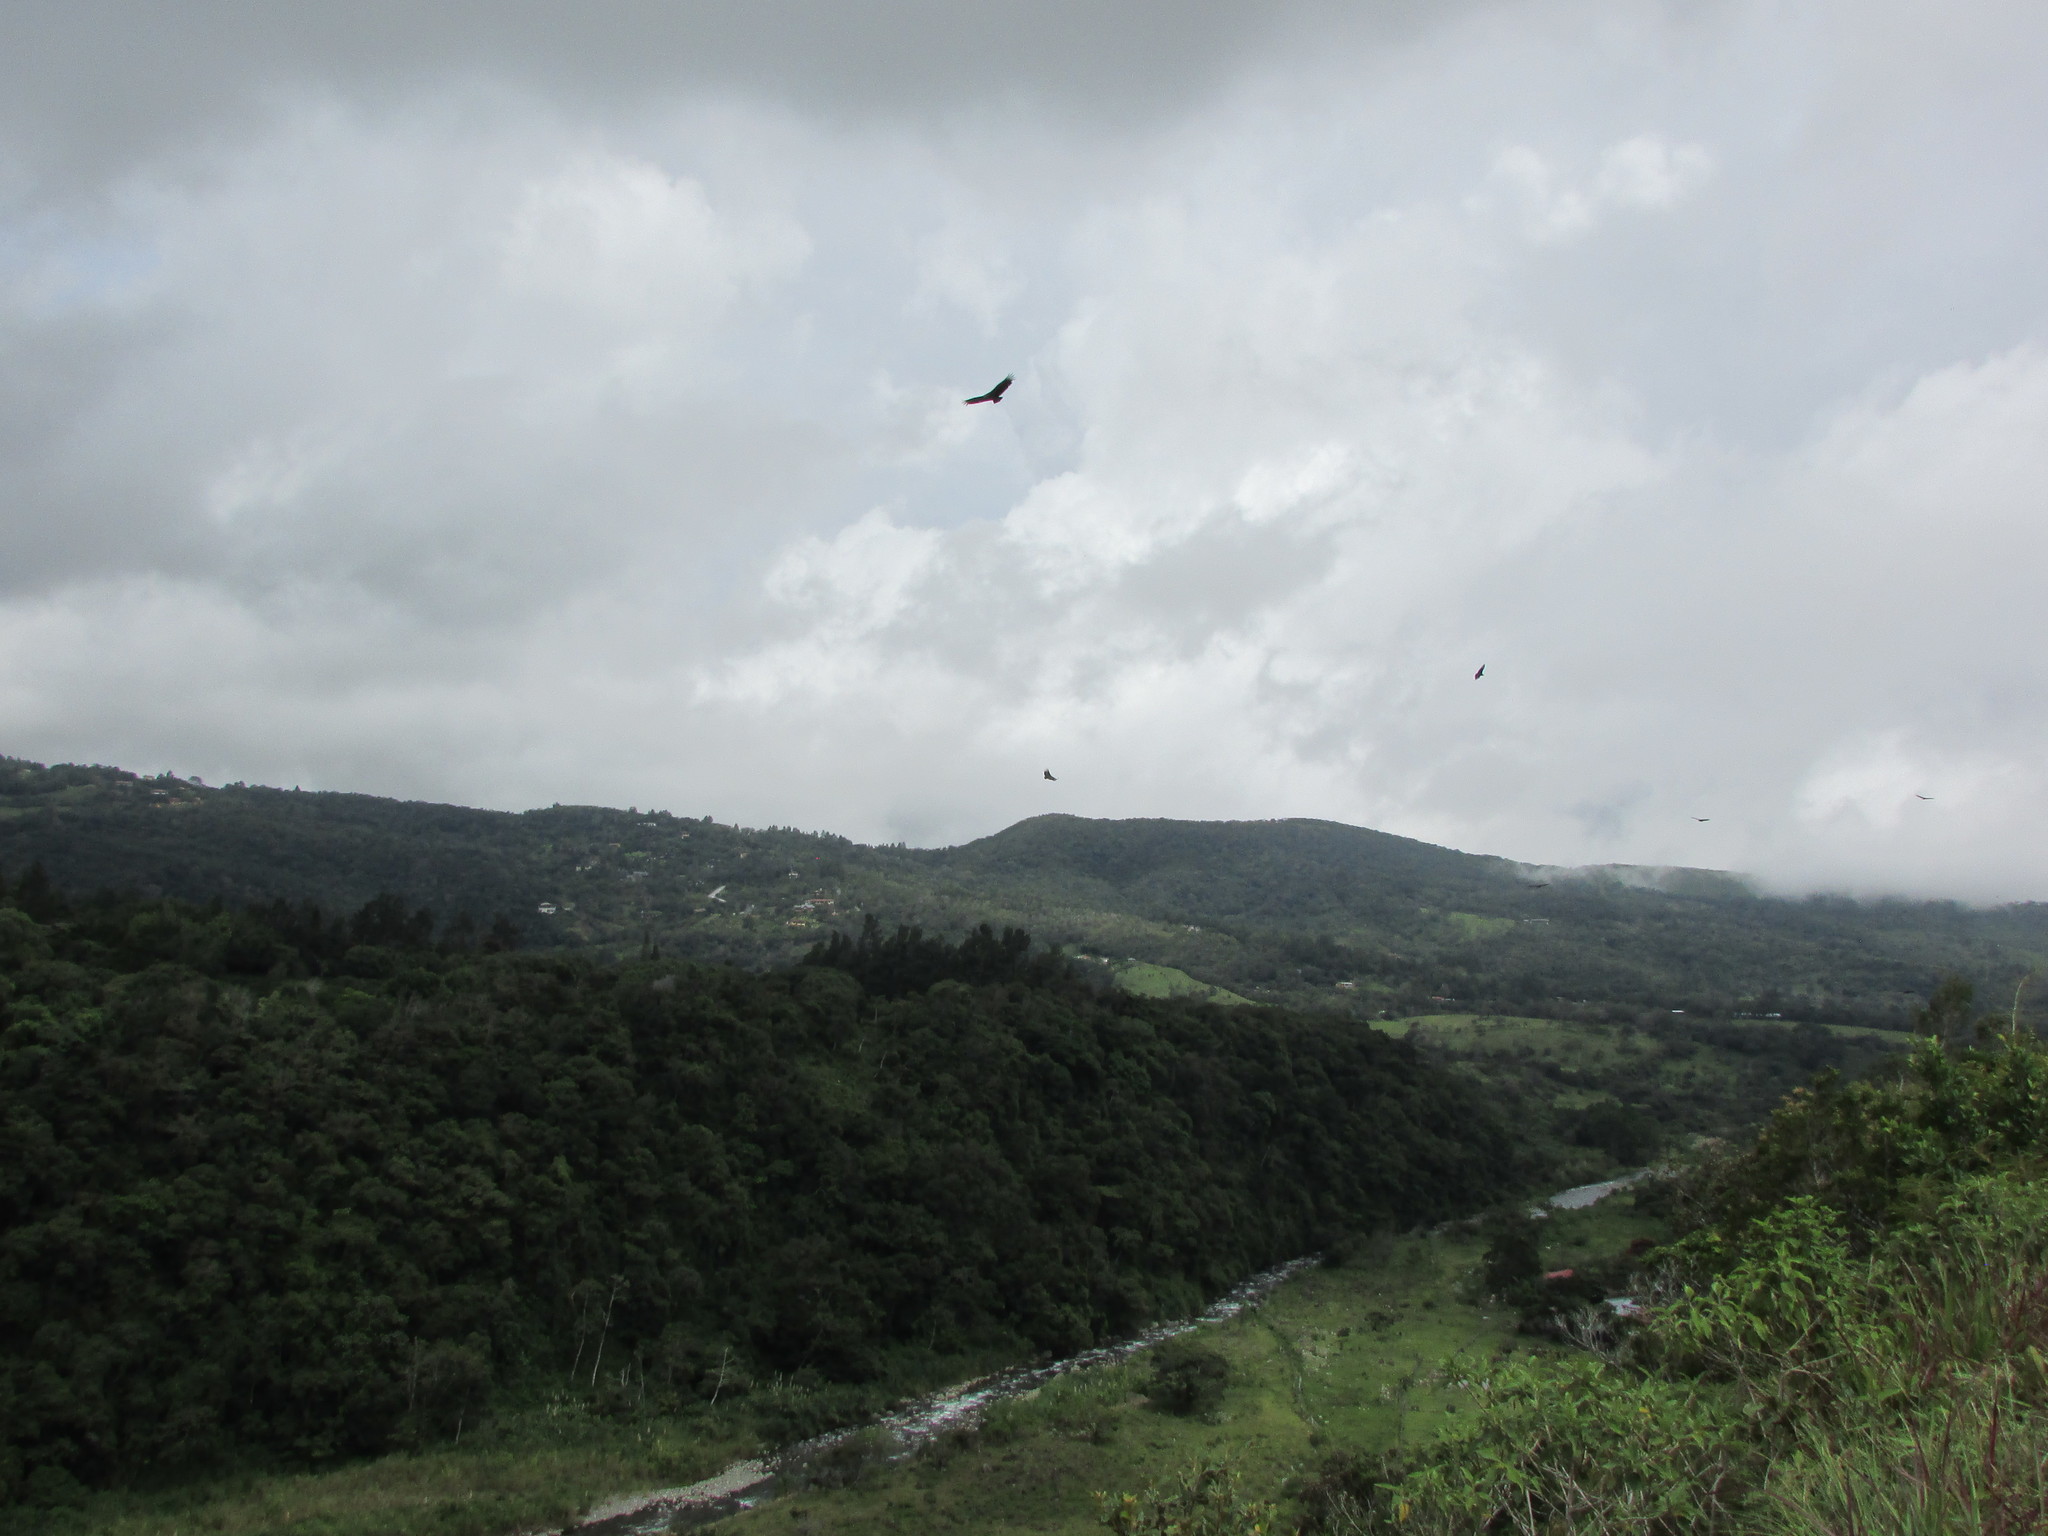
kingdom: Animalia
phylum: Chordata
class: Aves
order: Accipitriformes
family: Cathartidae
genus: Coragyps
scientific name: Coragyps atratus
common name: Black vulture
